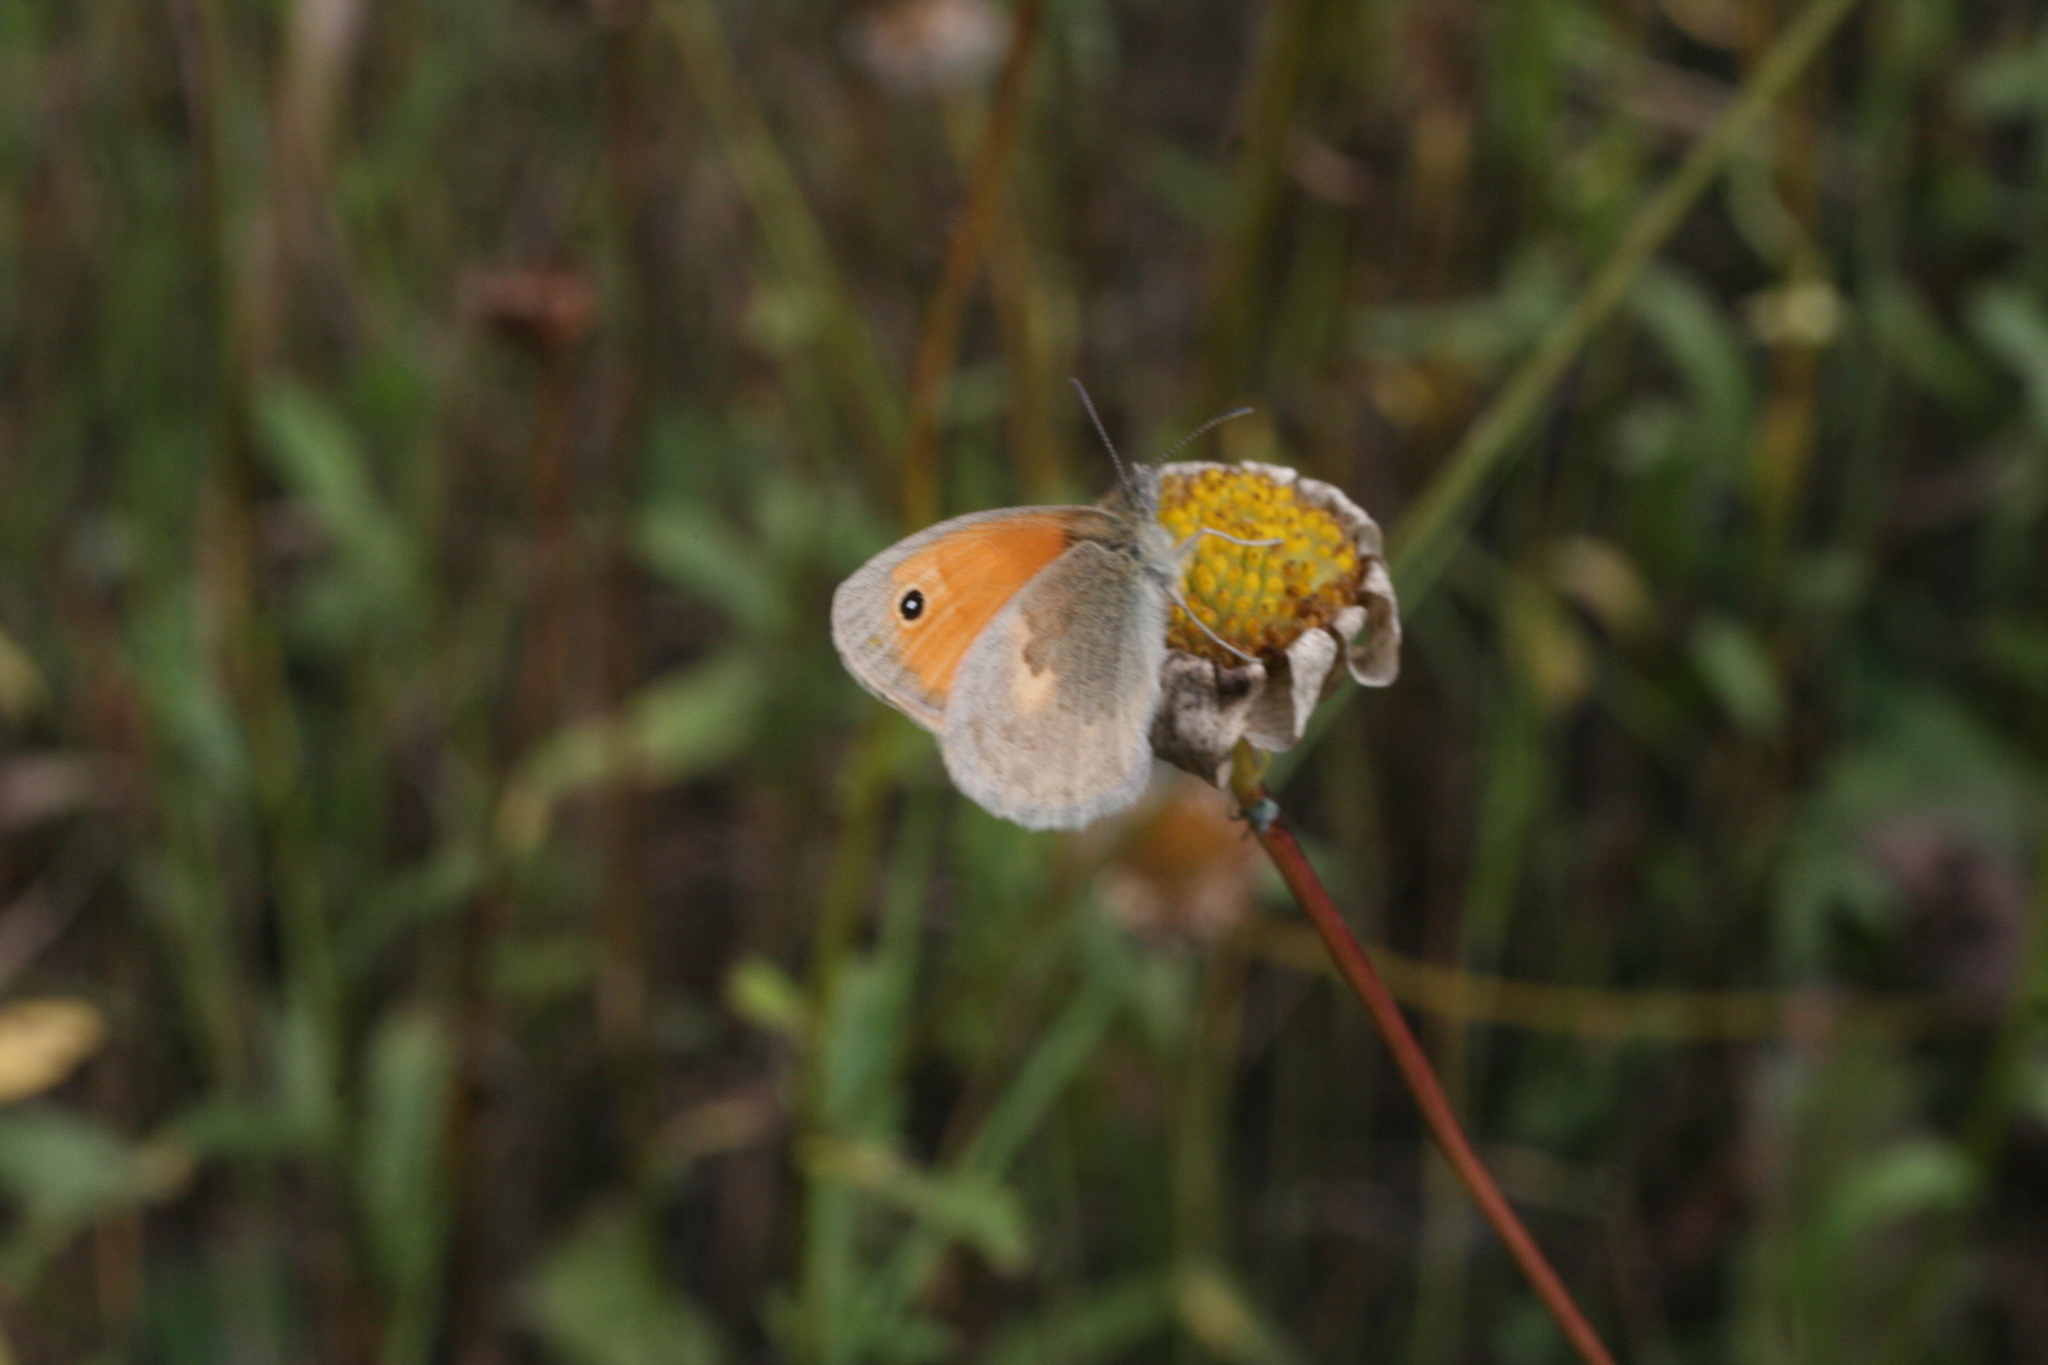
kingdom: Animalia
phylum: Arthropoda
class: Insecta
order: Lepidoptera
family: Nymphalidae
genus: Coenonympha
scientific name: Coenonympha pamphilus
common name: Small heath
